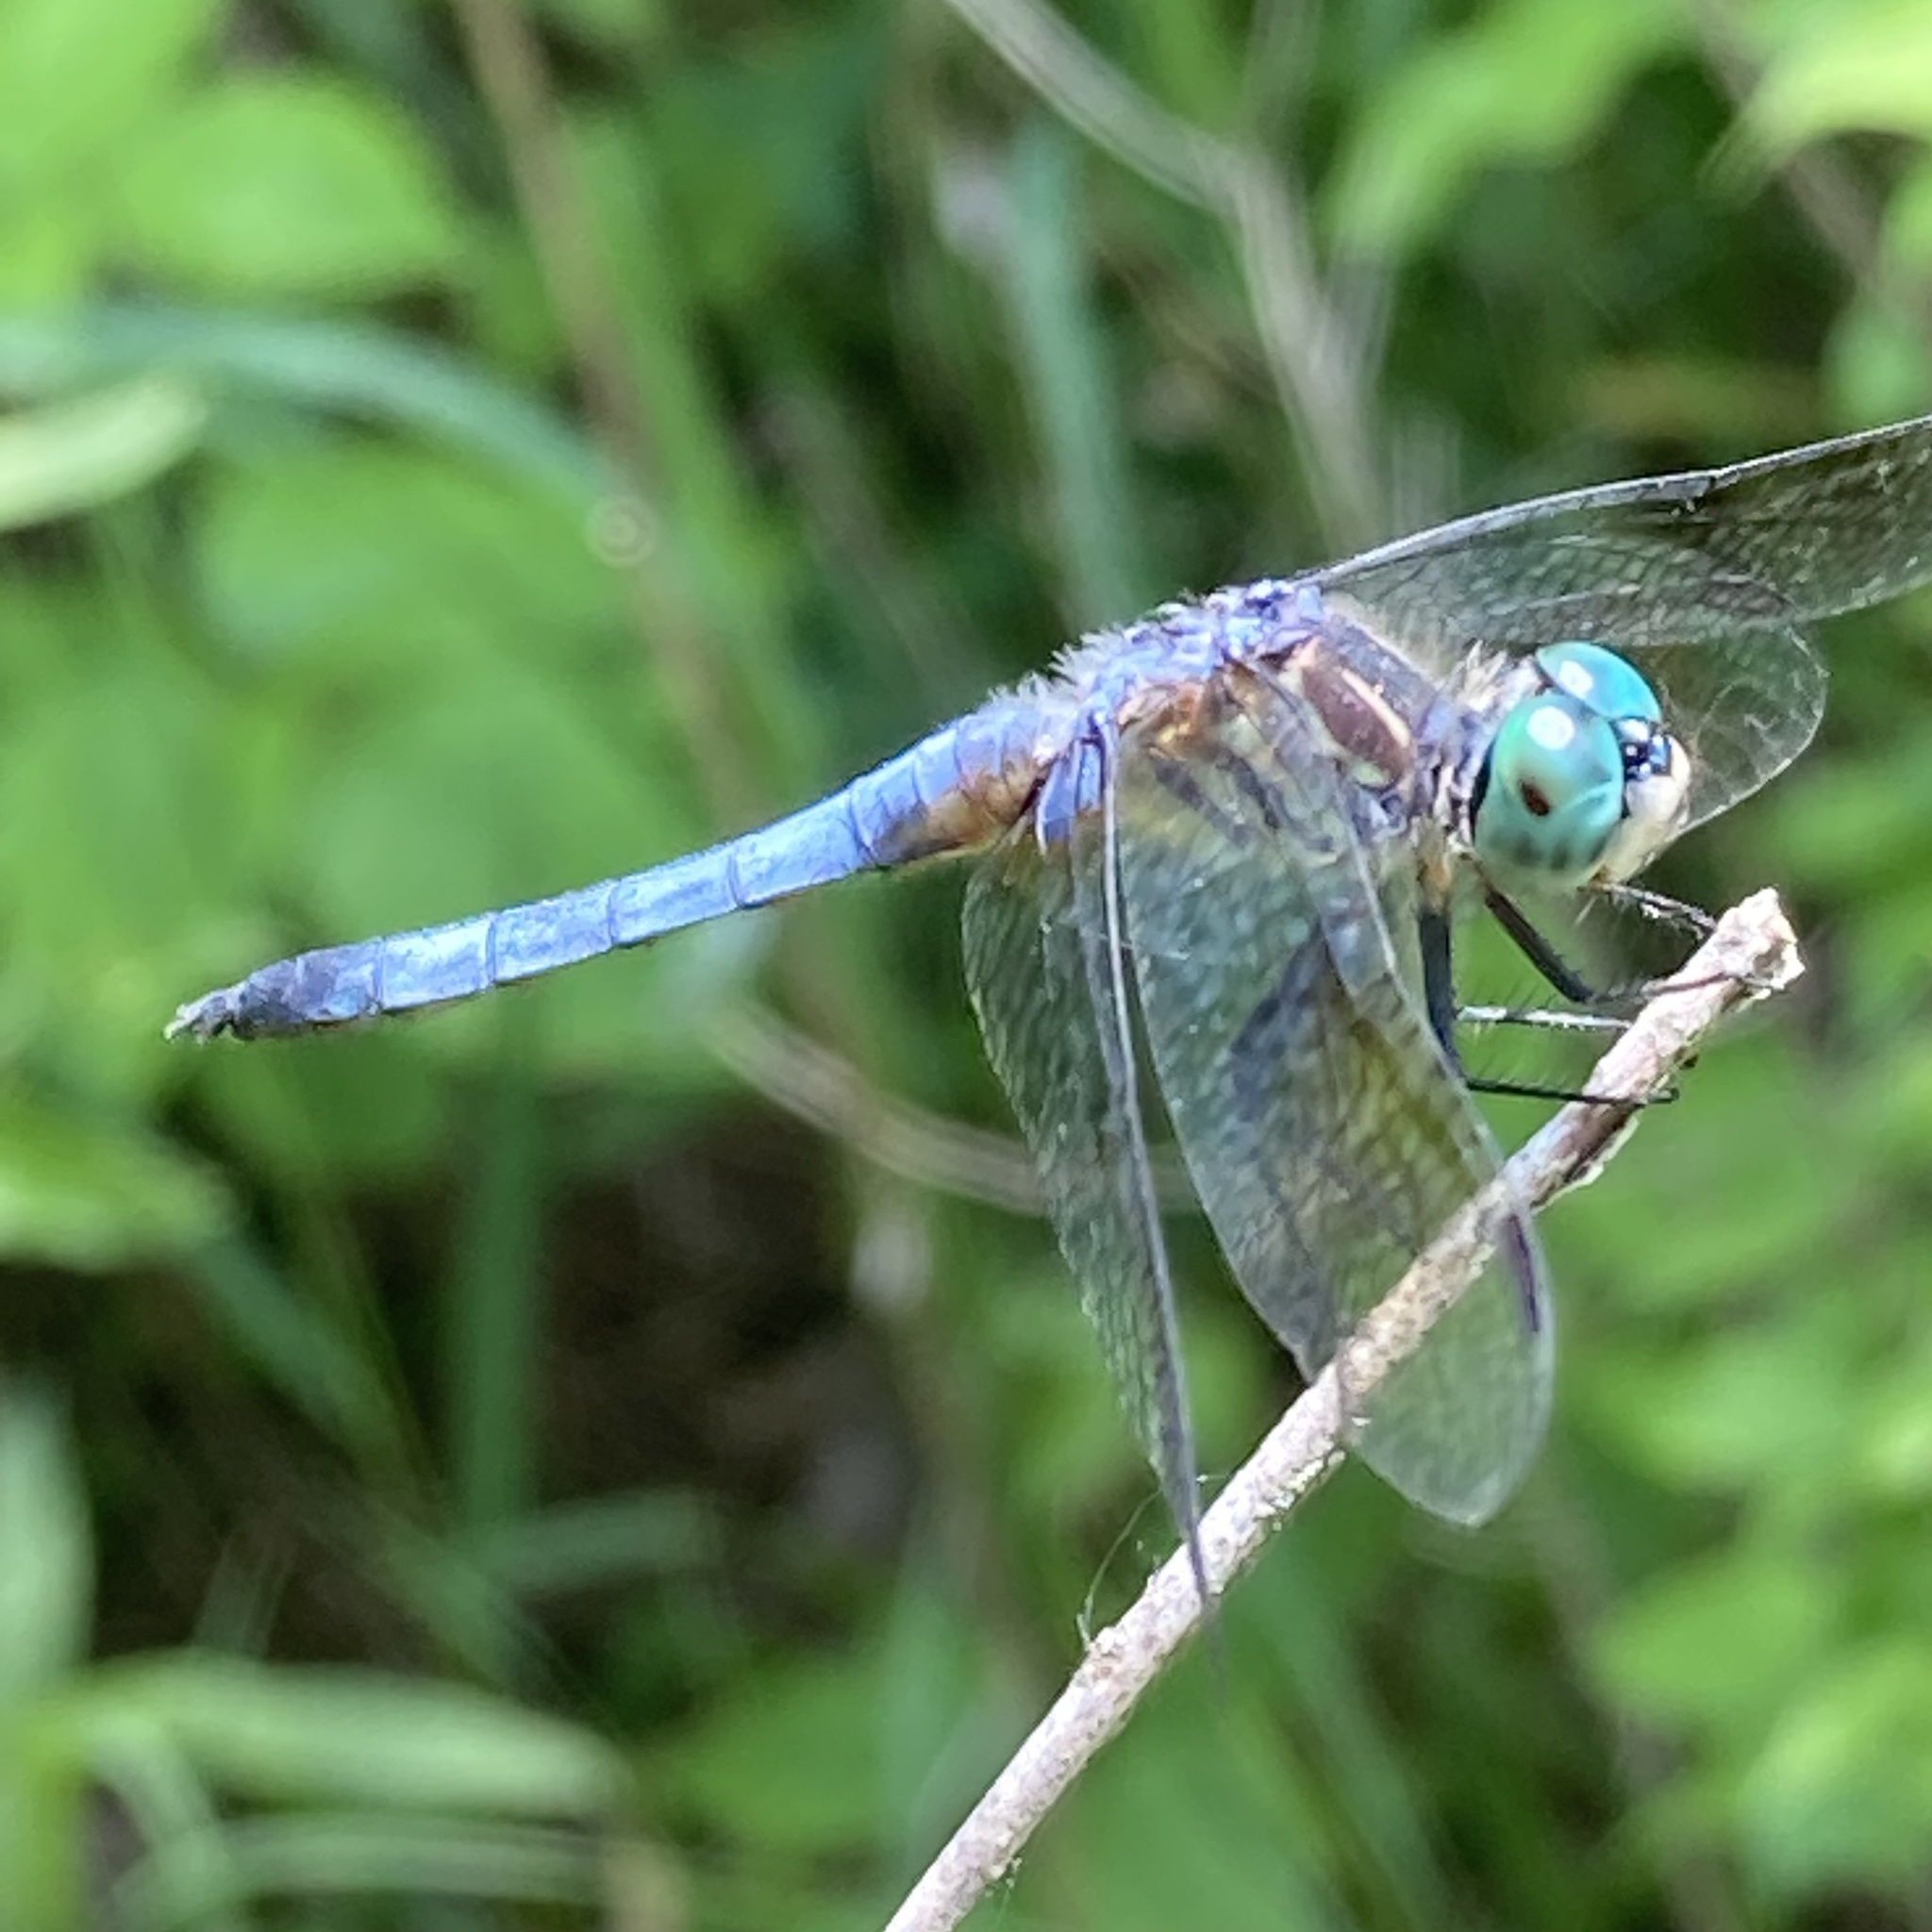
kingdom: Animalia
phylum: Arthropoda
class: Insecta
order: Odonata
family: Libellulidae
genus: Pachydiplax
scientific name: Pachydiplax longipennis
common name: Blue dasher
